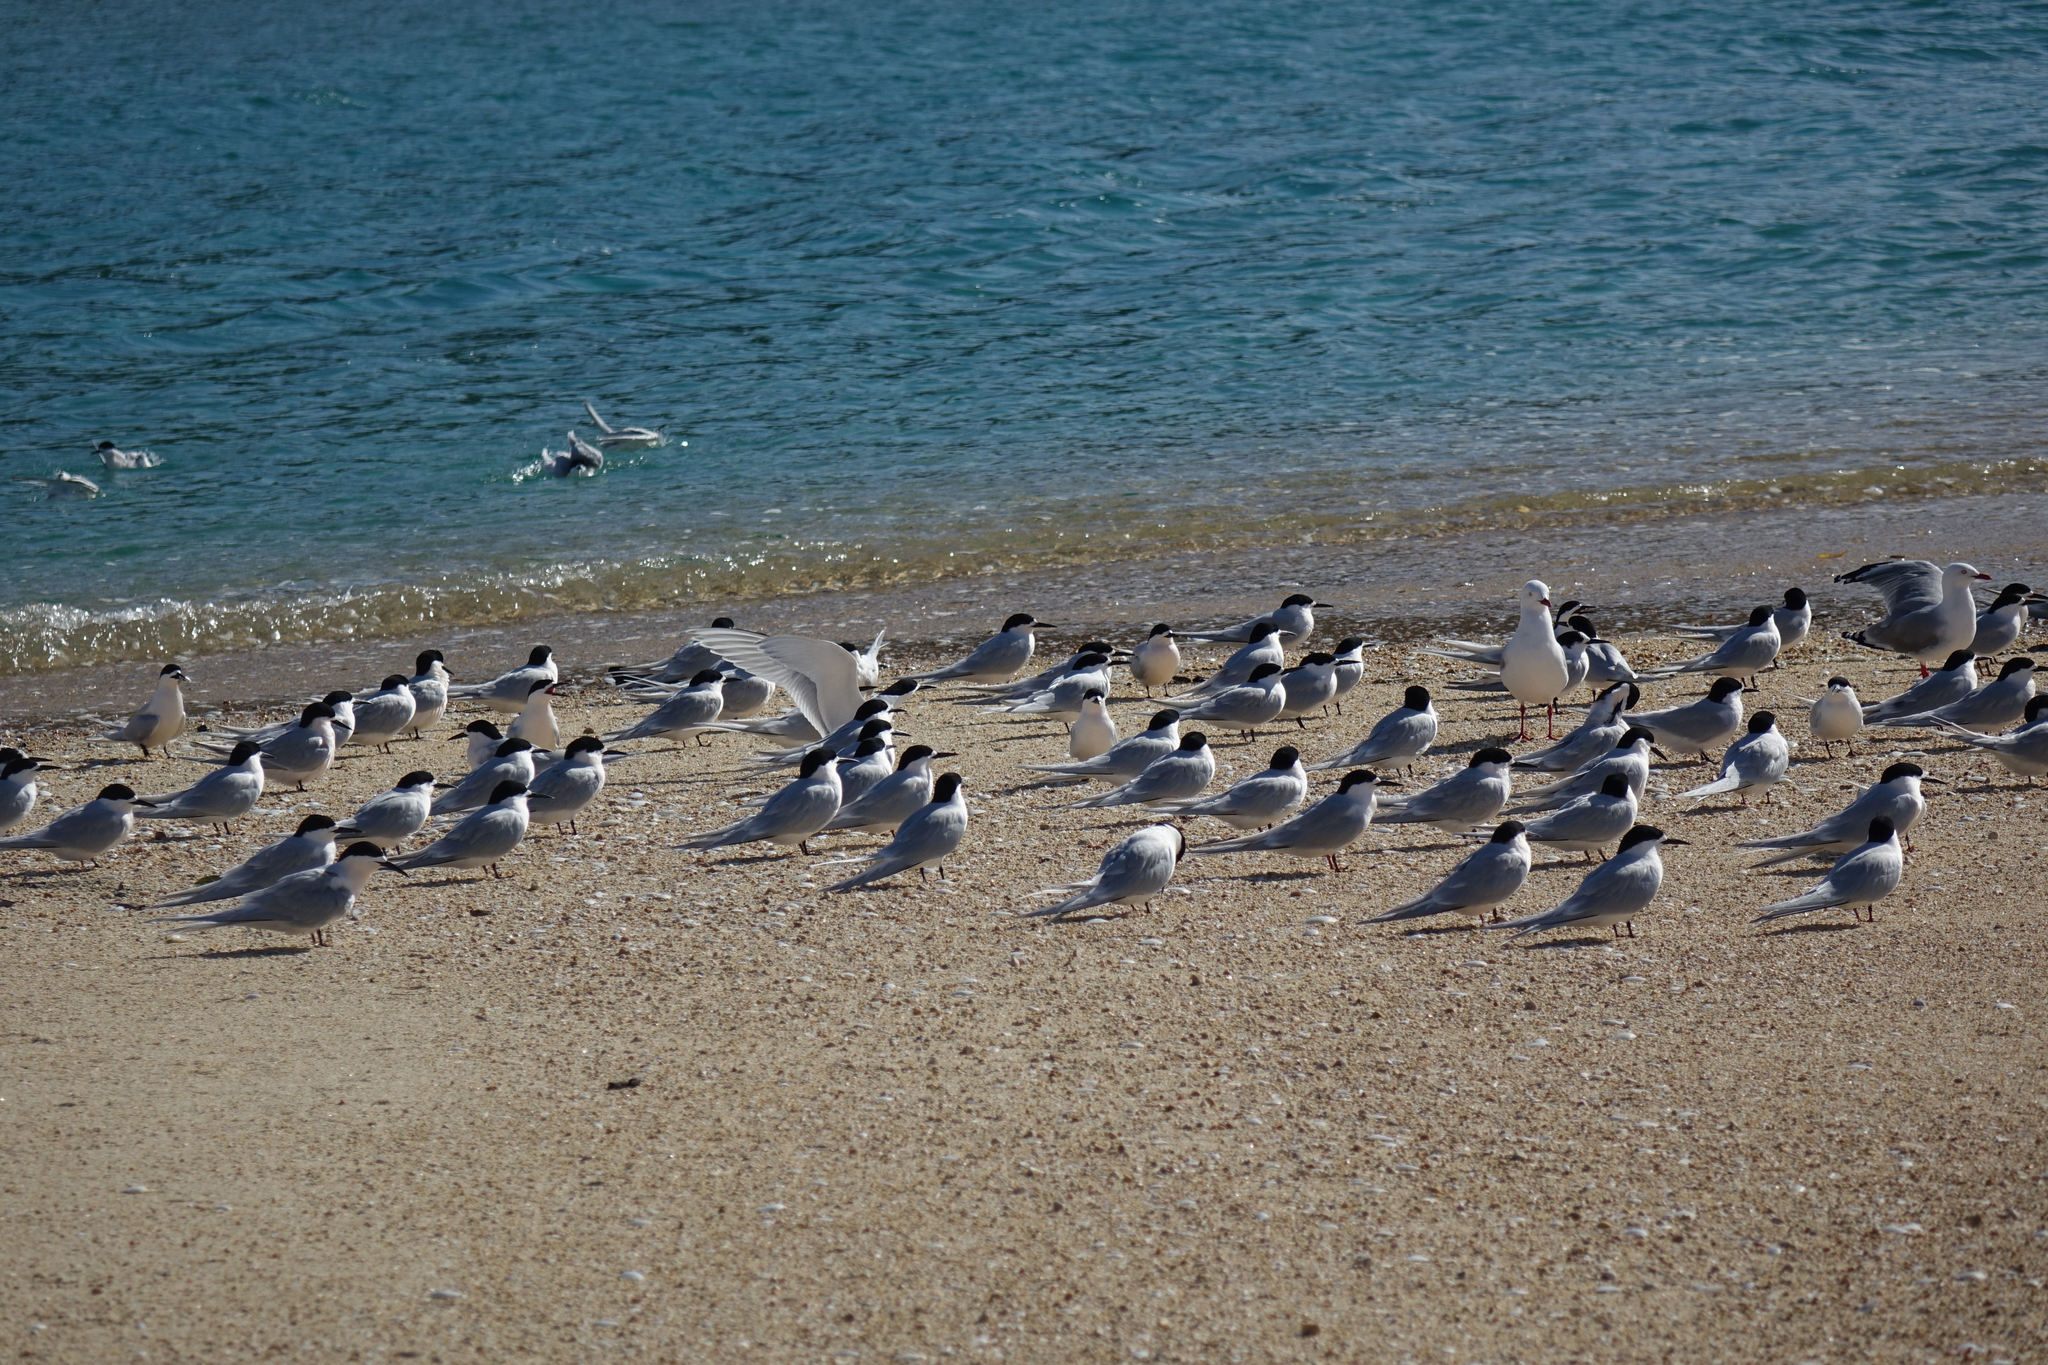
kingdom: Animalia
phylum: Chordata
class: Aves
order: Charadriiformes
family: Laridae
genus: Sterna
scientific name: Sterna striata
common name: White-fronted tern
